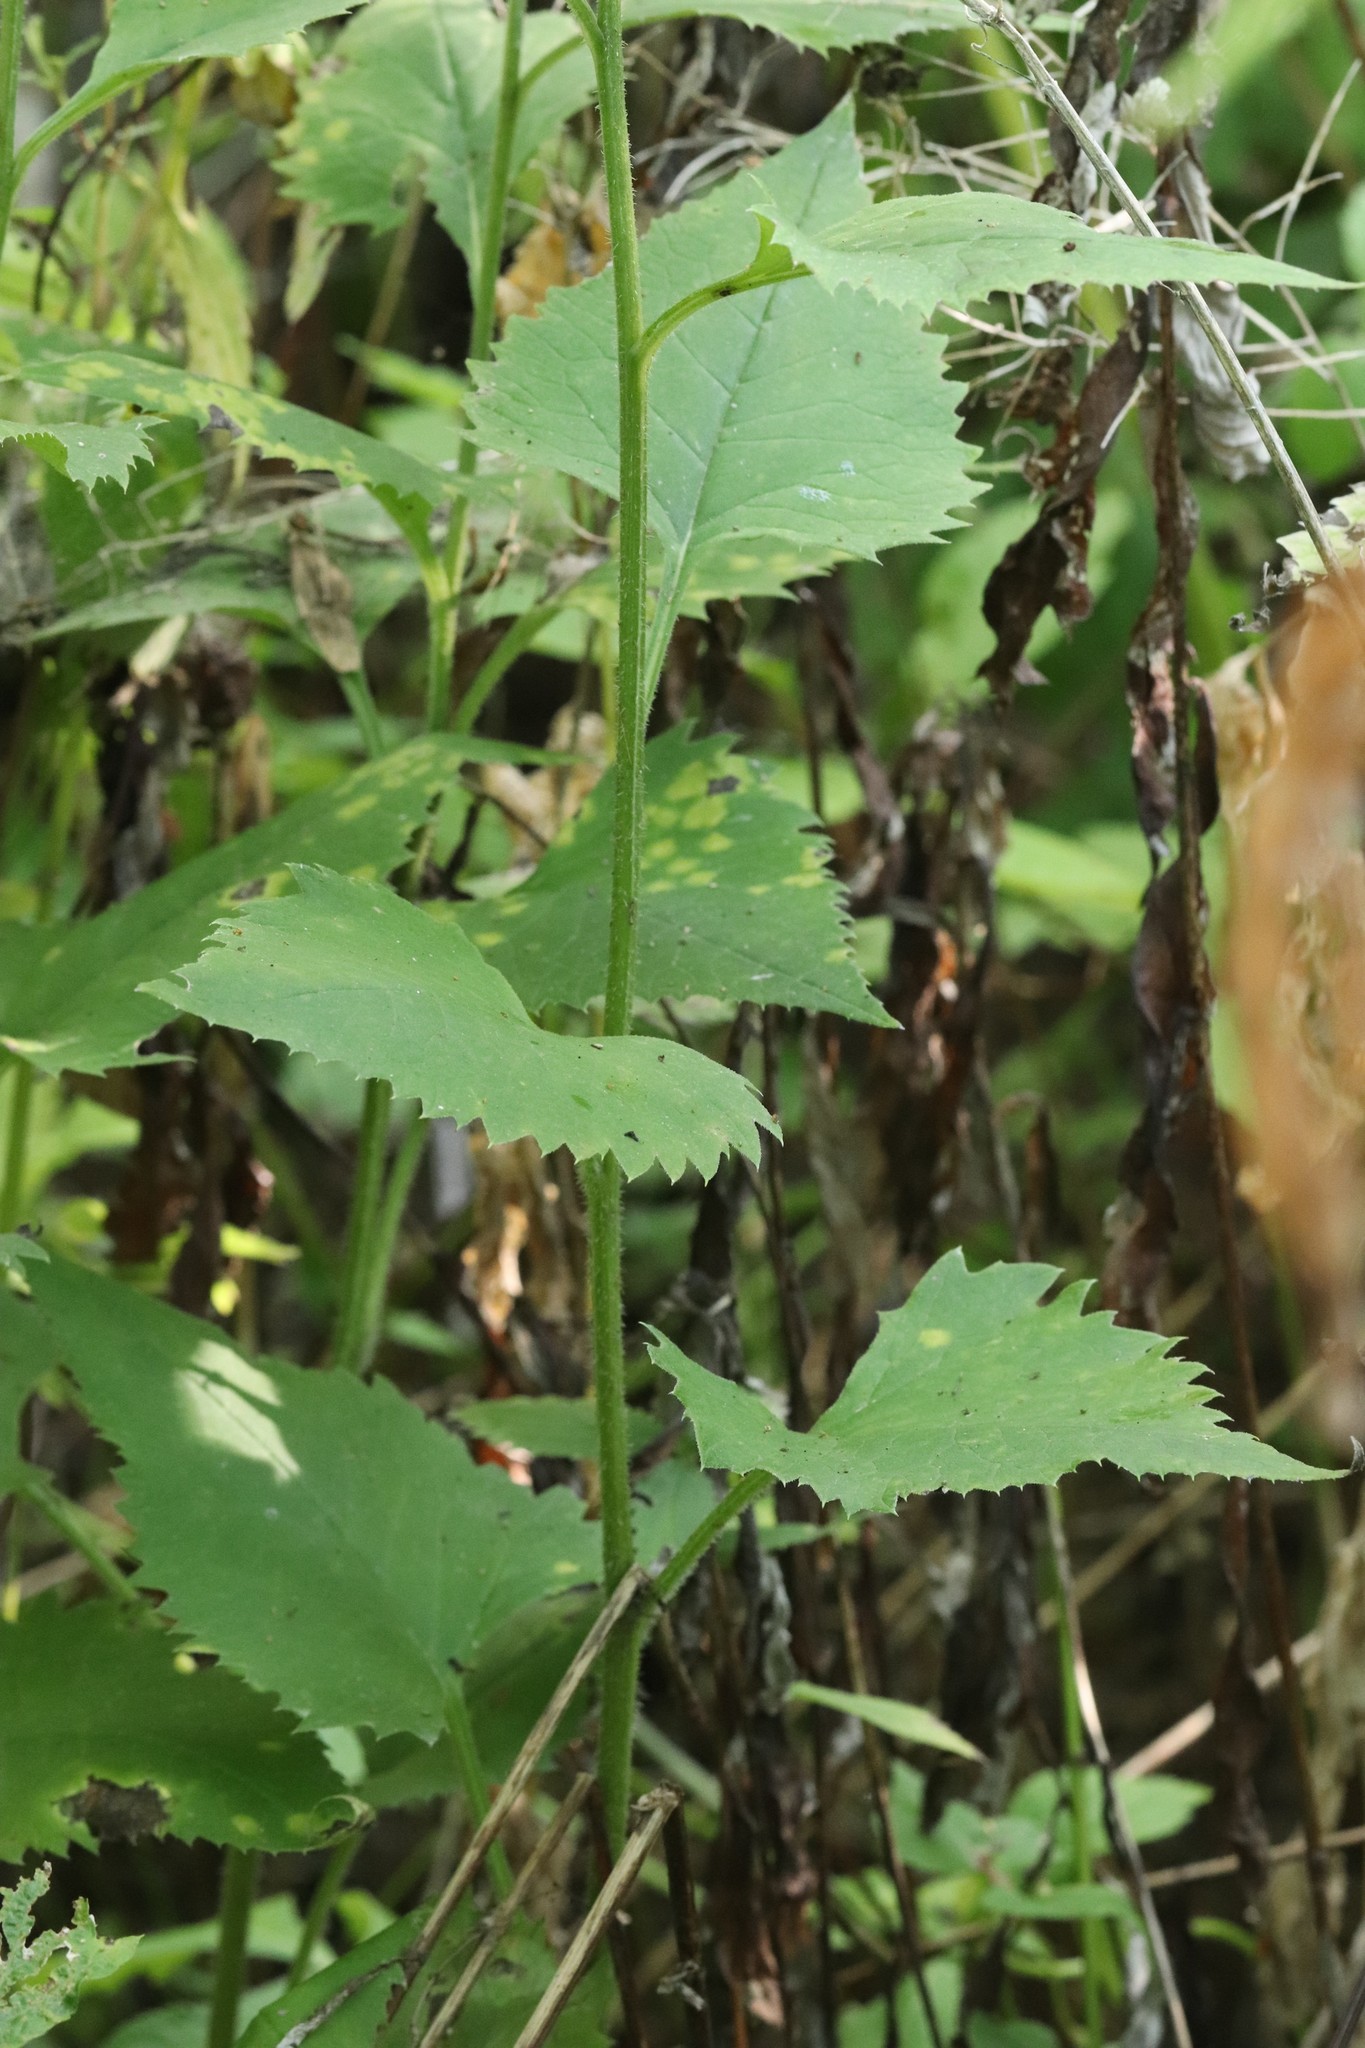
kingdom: Plantae
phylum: Tracheophyta
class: Magnoliopsida
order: Asterales
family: Asteraceae
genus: Saussurea
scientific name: Saussurea grandifolia
